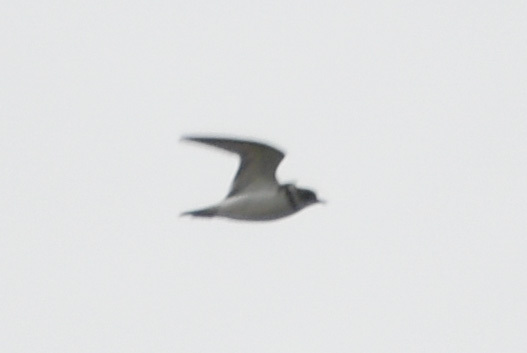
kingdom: Animalia
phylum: Chordata
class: Aves
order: Charadriiformes
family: Charadriidae
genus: Charadrius
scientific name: Charadrius semipalmatus
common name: Semipalmated plover
